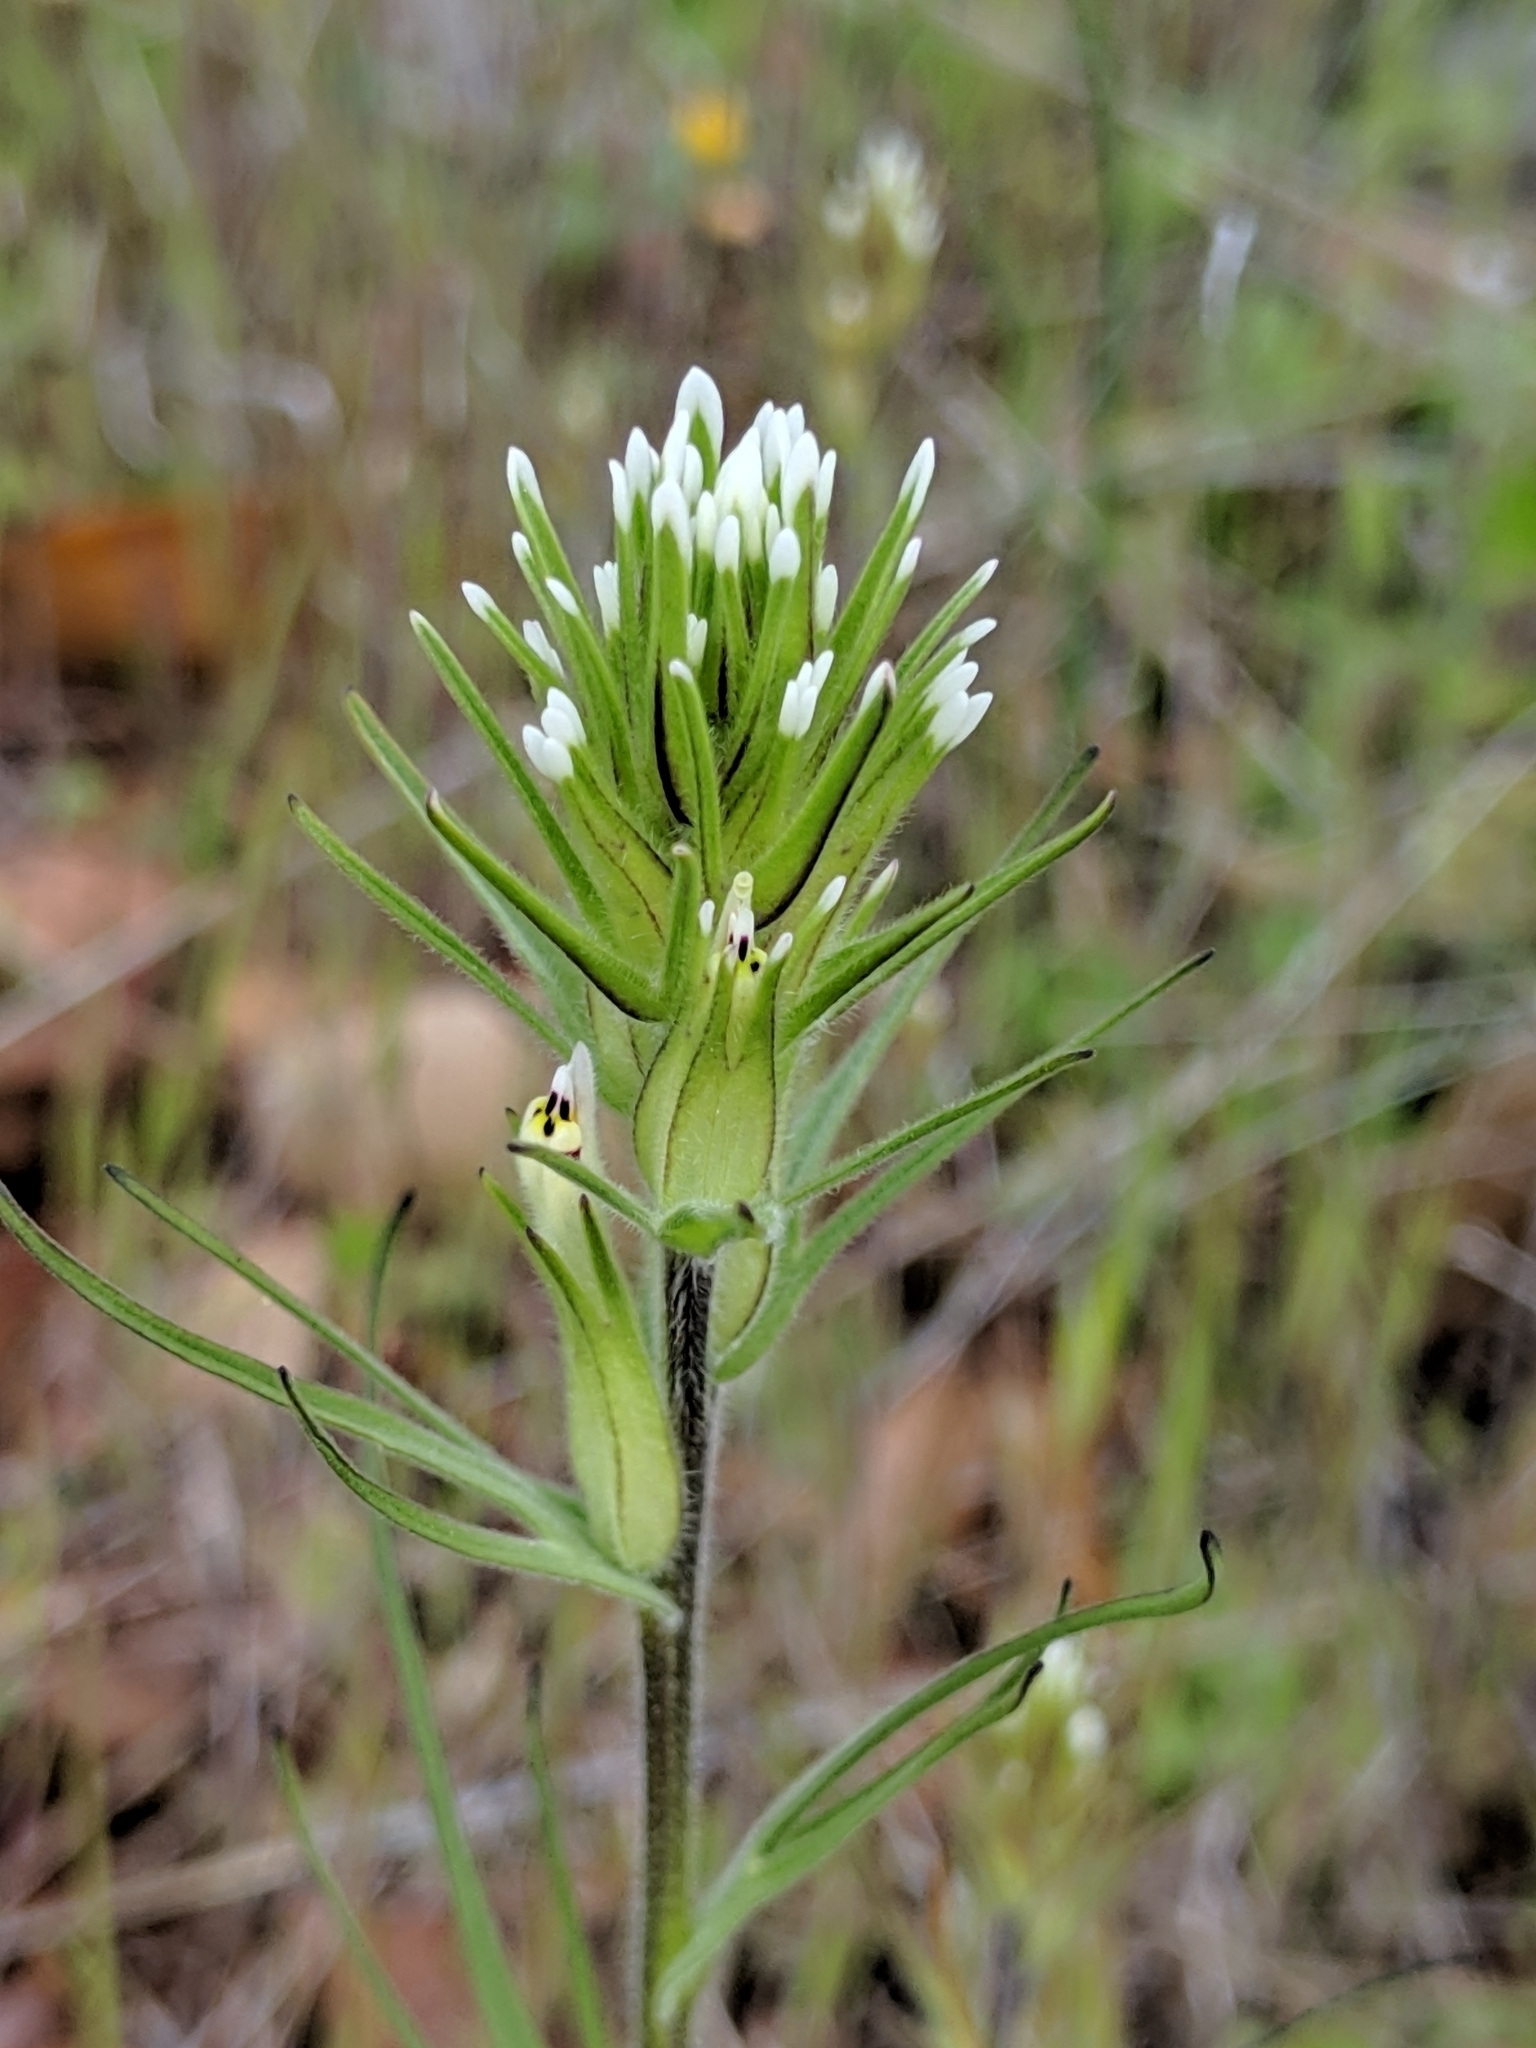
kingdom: Plantae
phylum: Tracheophyta
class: Magnoliopsida
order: Lamiales
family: Orobanchaceae
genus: Castilleja
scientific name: Castilleja attenuata
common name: Valley tassels
